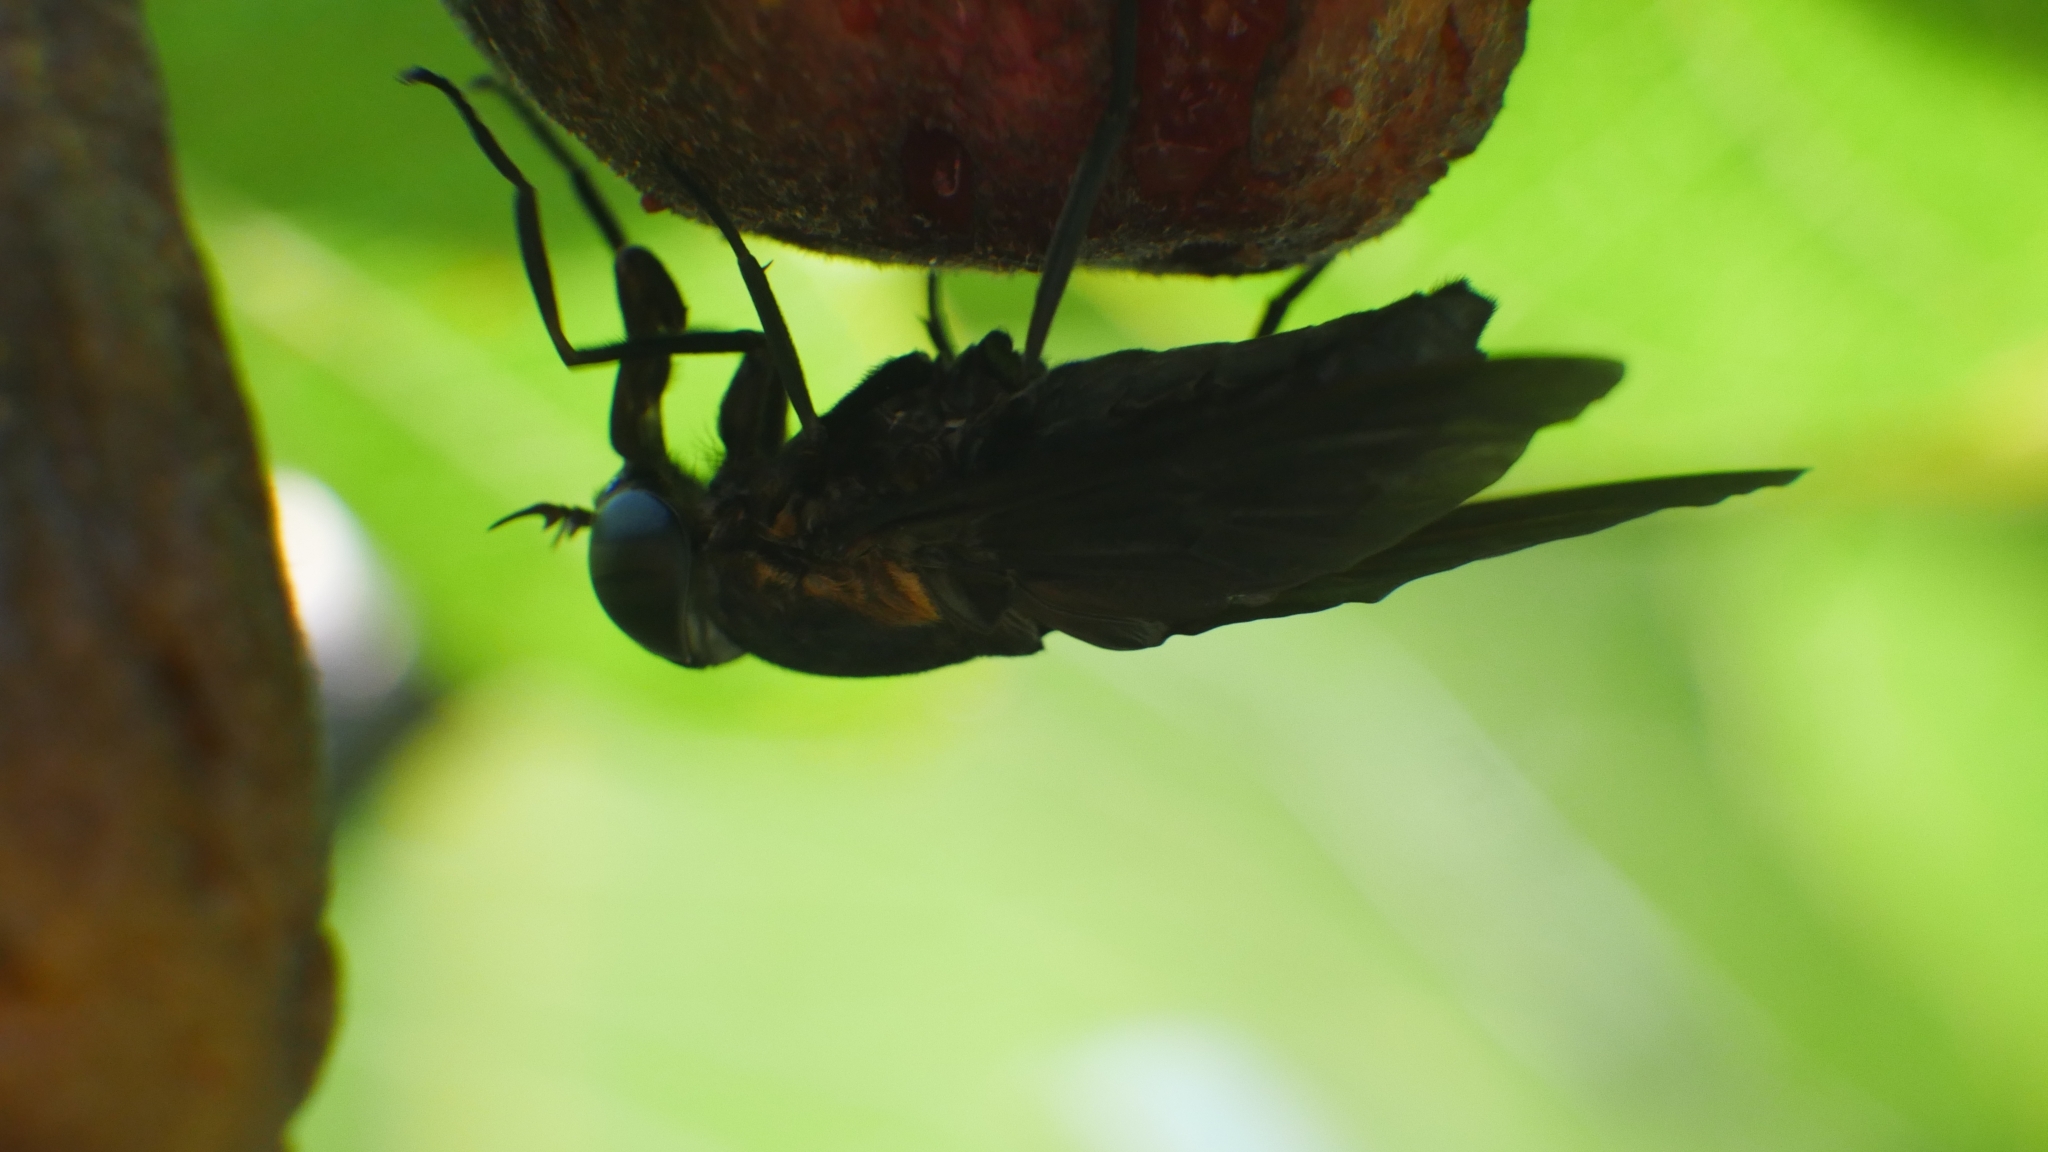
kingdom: Animalia
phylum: Arthropoda
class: Insecta
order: Diptera
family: Tabanidae
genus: Tabanus
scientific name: Tabanus atratus
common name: Black horse fly
